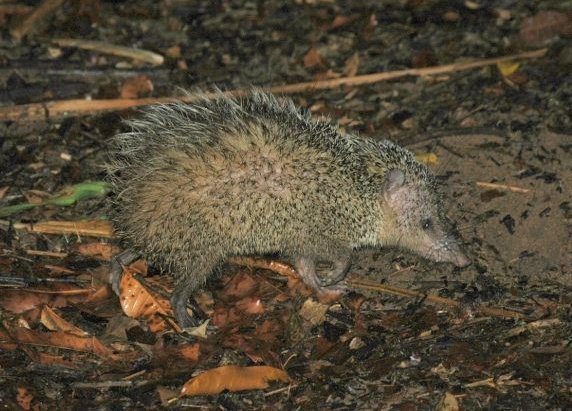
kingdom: Animalia
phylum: Chordata
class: Mammalia
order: Afrosoricida
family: Tenrecidae
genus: Tenrec
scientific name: Tenrec ecaudatus
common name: Common tenrec
